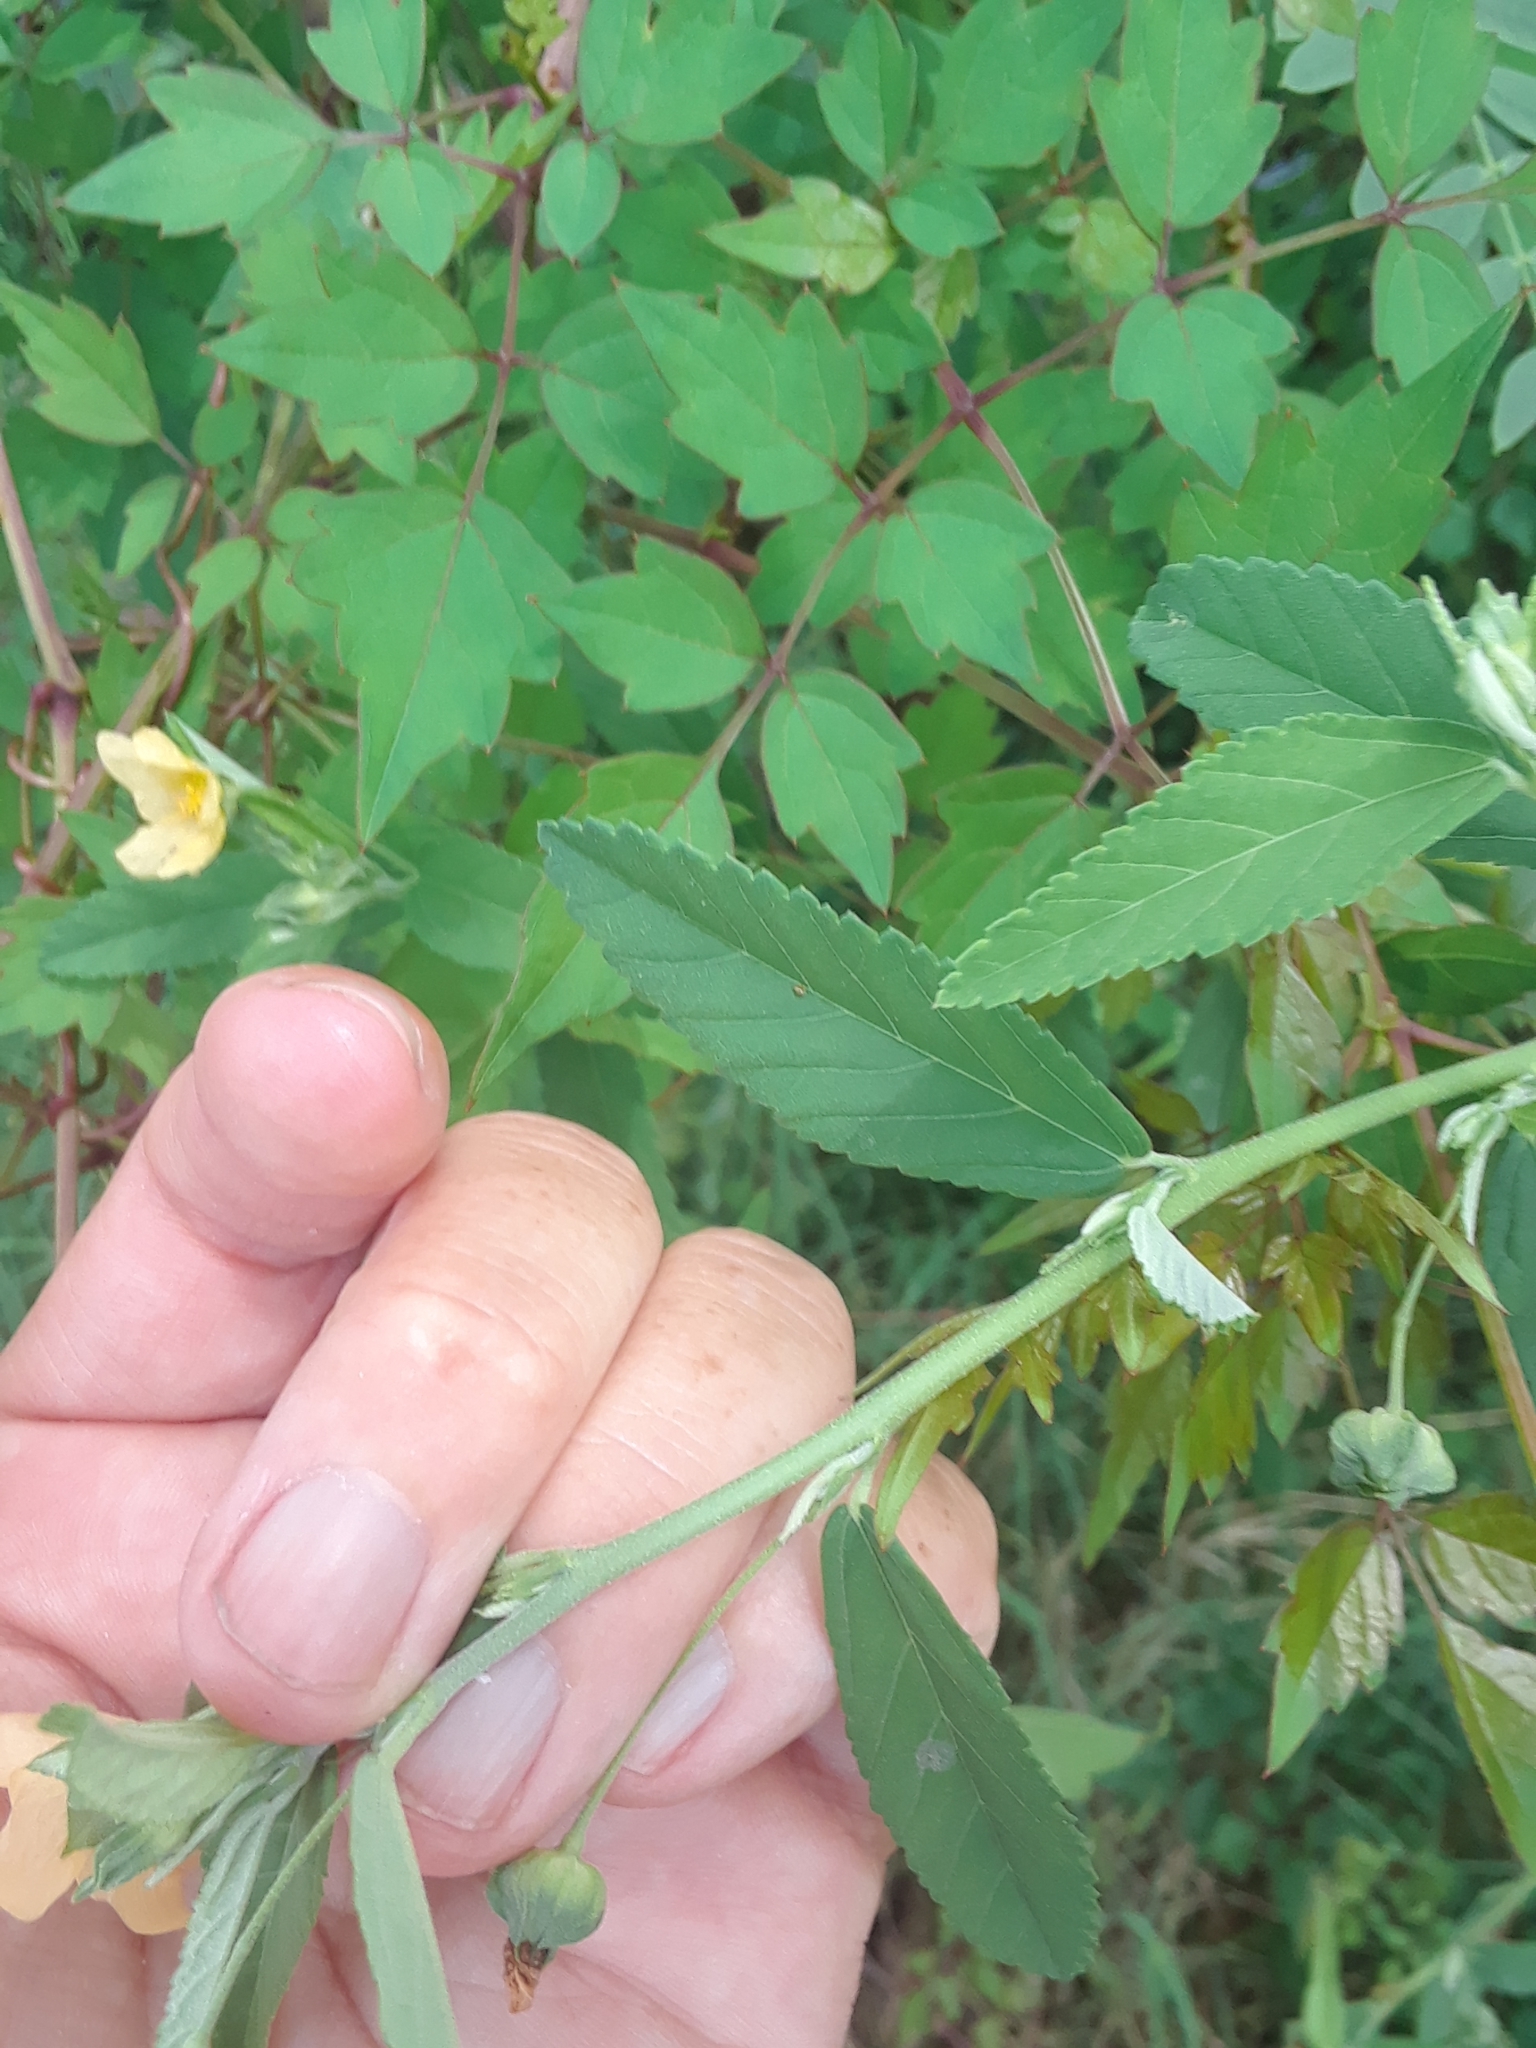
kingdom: Plantae
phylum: Tracheophyta
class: Magnoliopsida
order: Malvales
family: Malvaceae
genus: Sida
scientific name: Sida rhombifolia
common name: Queensland-hemp
